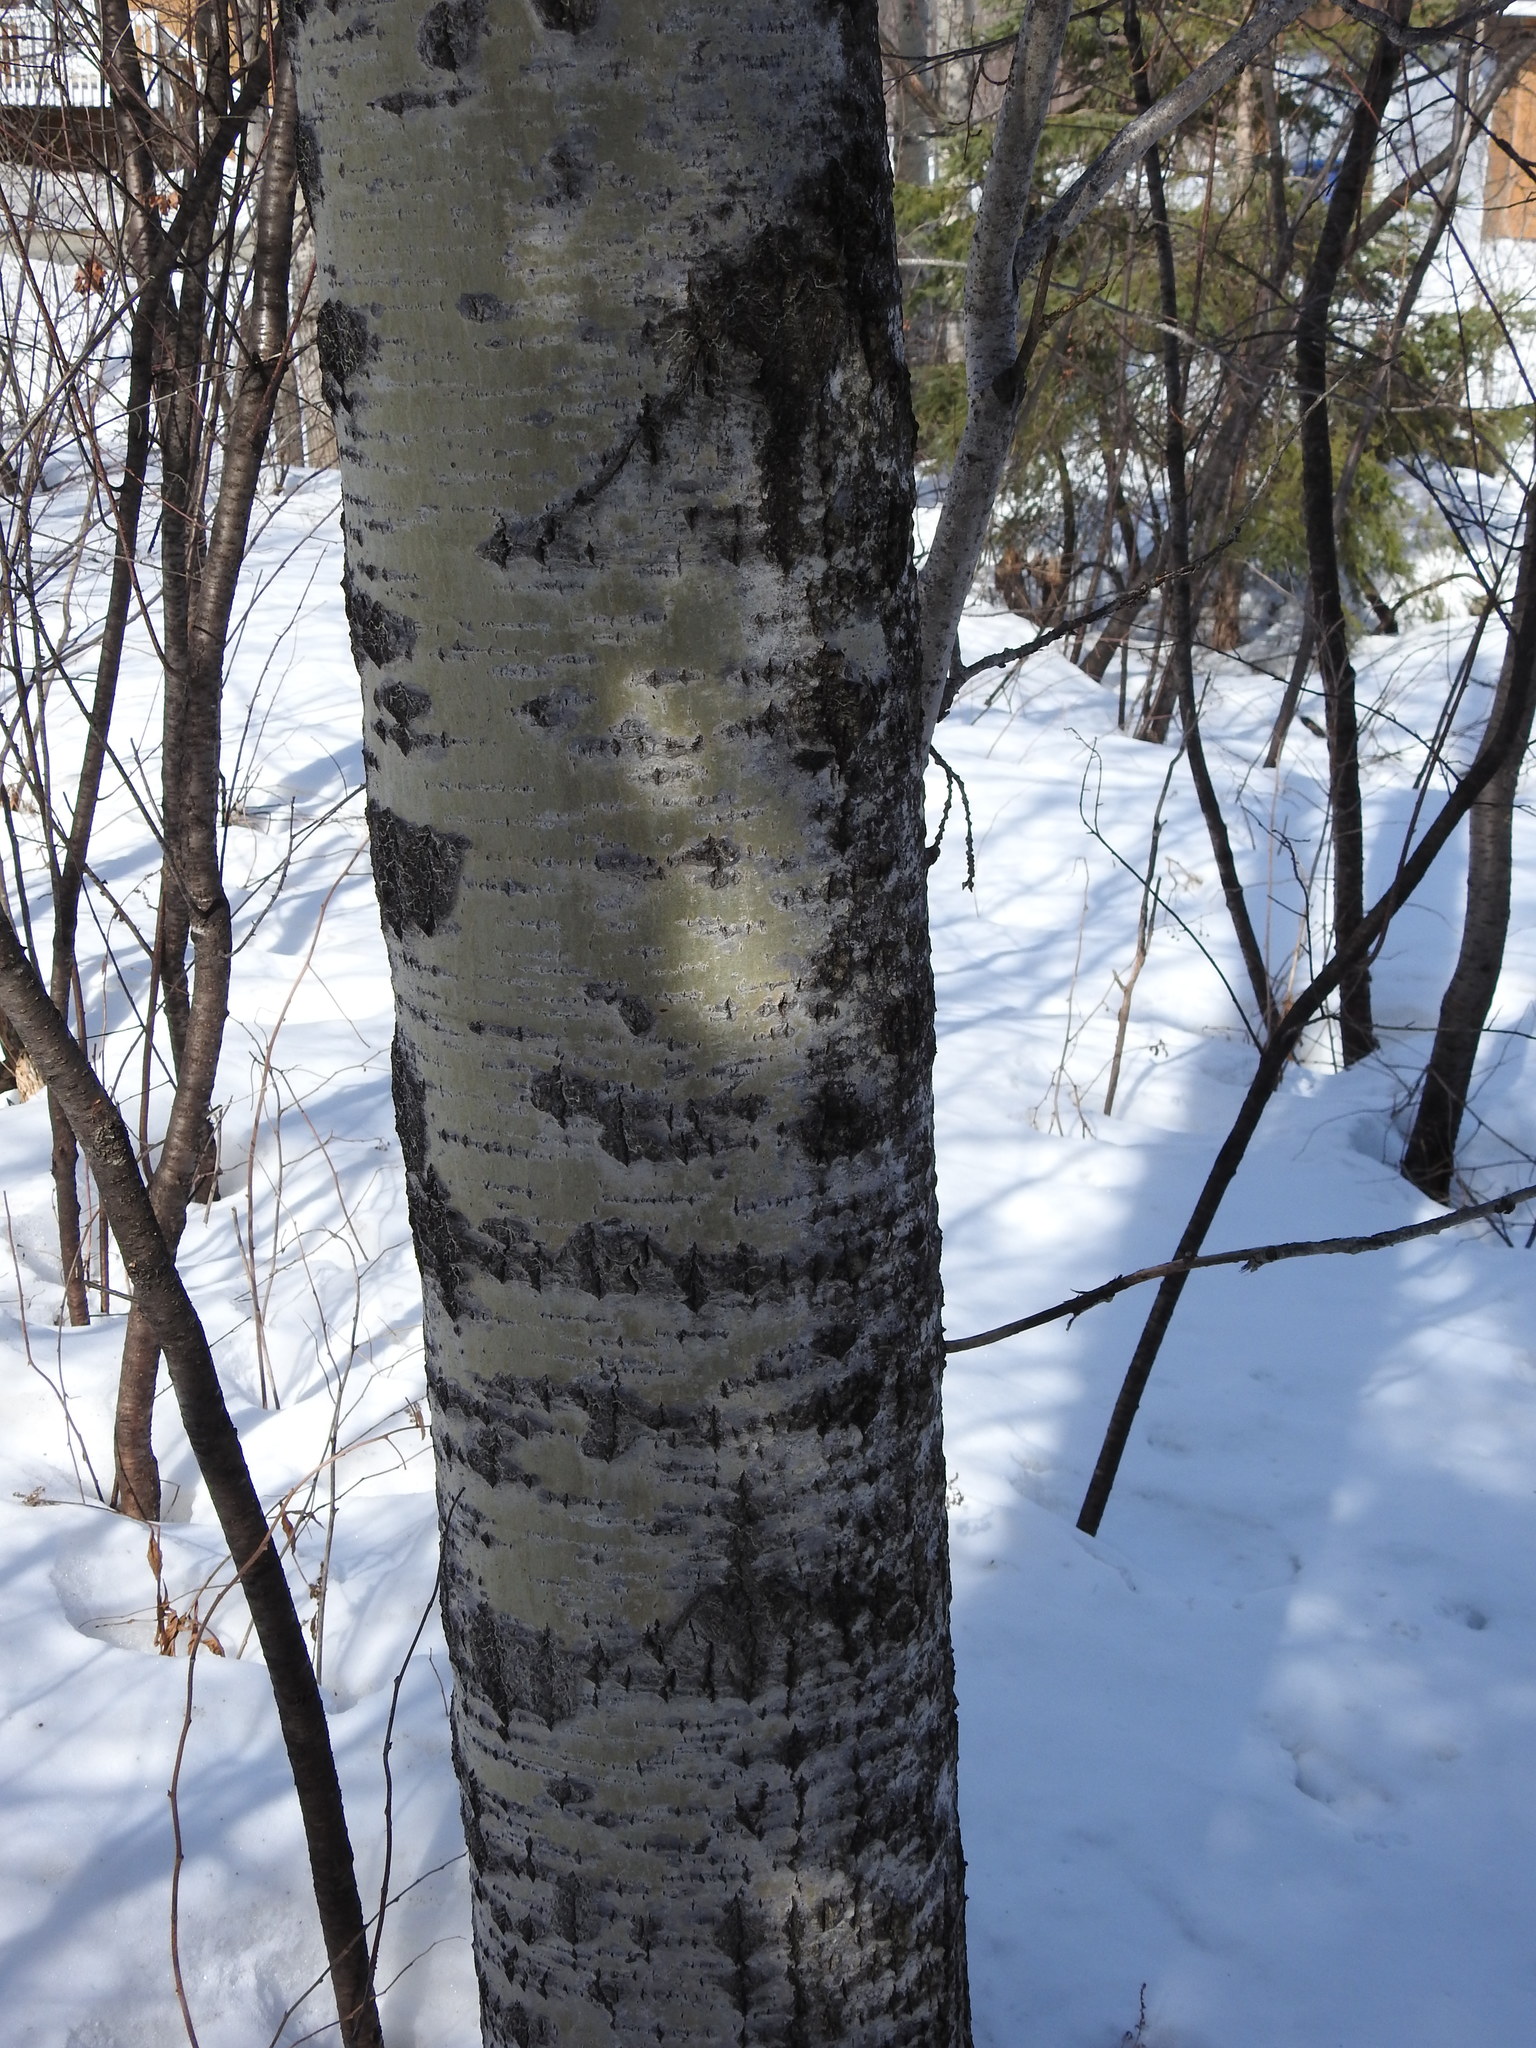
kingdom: Plantae
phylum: Tracheophyta
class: Magnoliopsida
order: Malpighiales
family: Salicaceae
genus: Populus
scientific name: Populus tremuloides
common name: Quaking aspen
